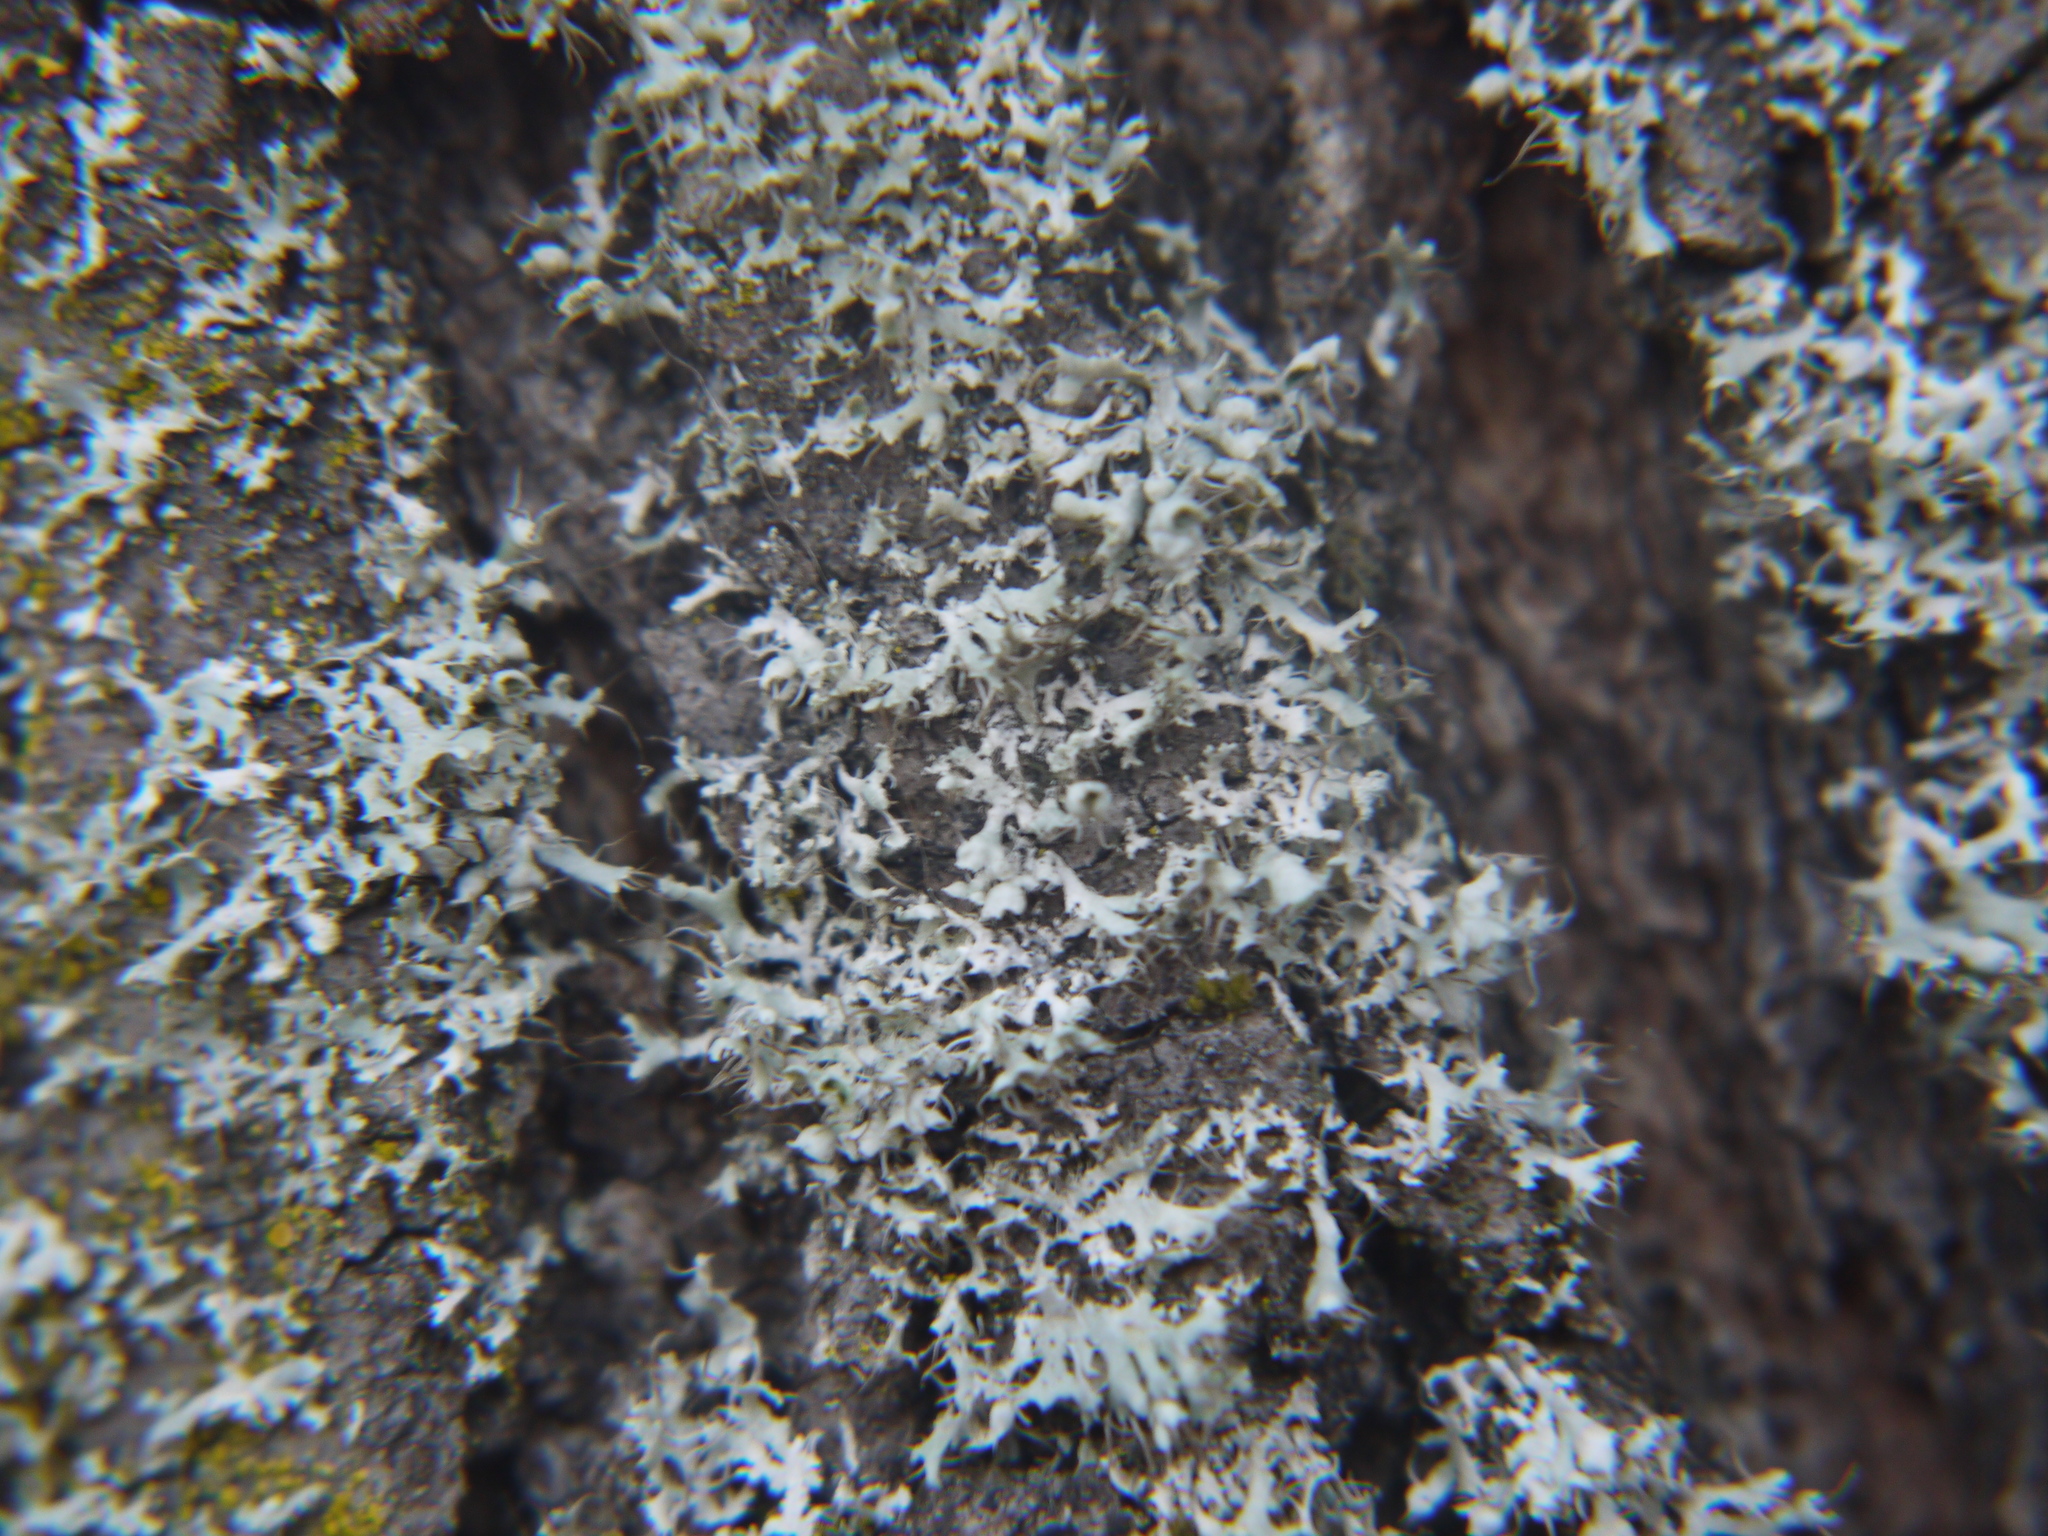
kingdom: Fungi
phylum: Ascomycota
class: Lecanoromycetes
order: Caliciales
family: Physciaceae
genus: Physcia
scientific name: Physcia adscendens
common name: Hooded rosette lichen
